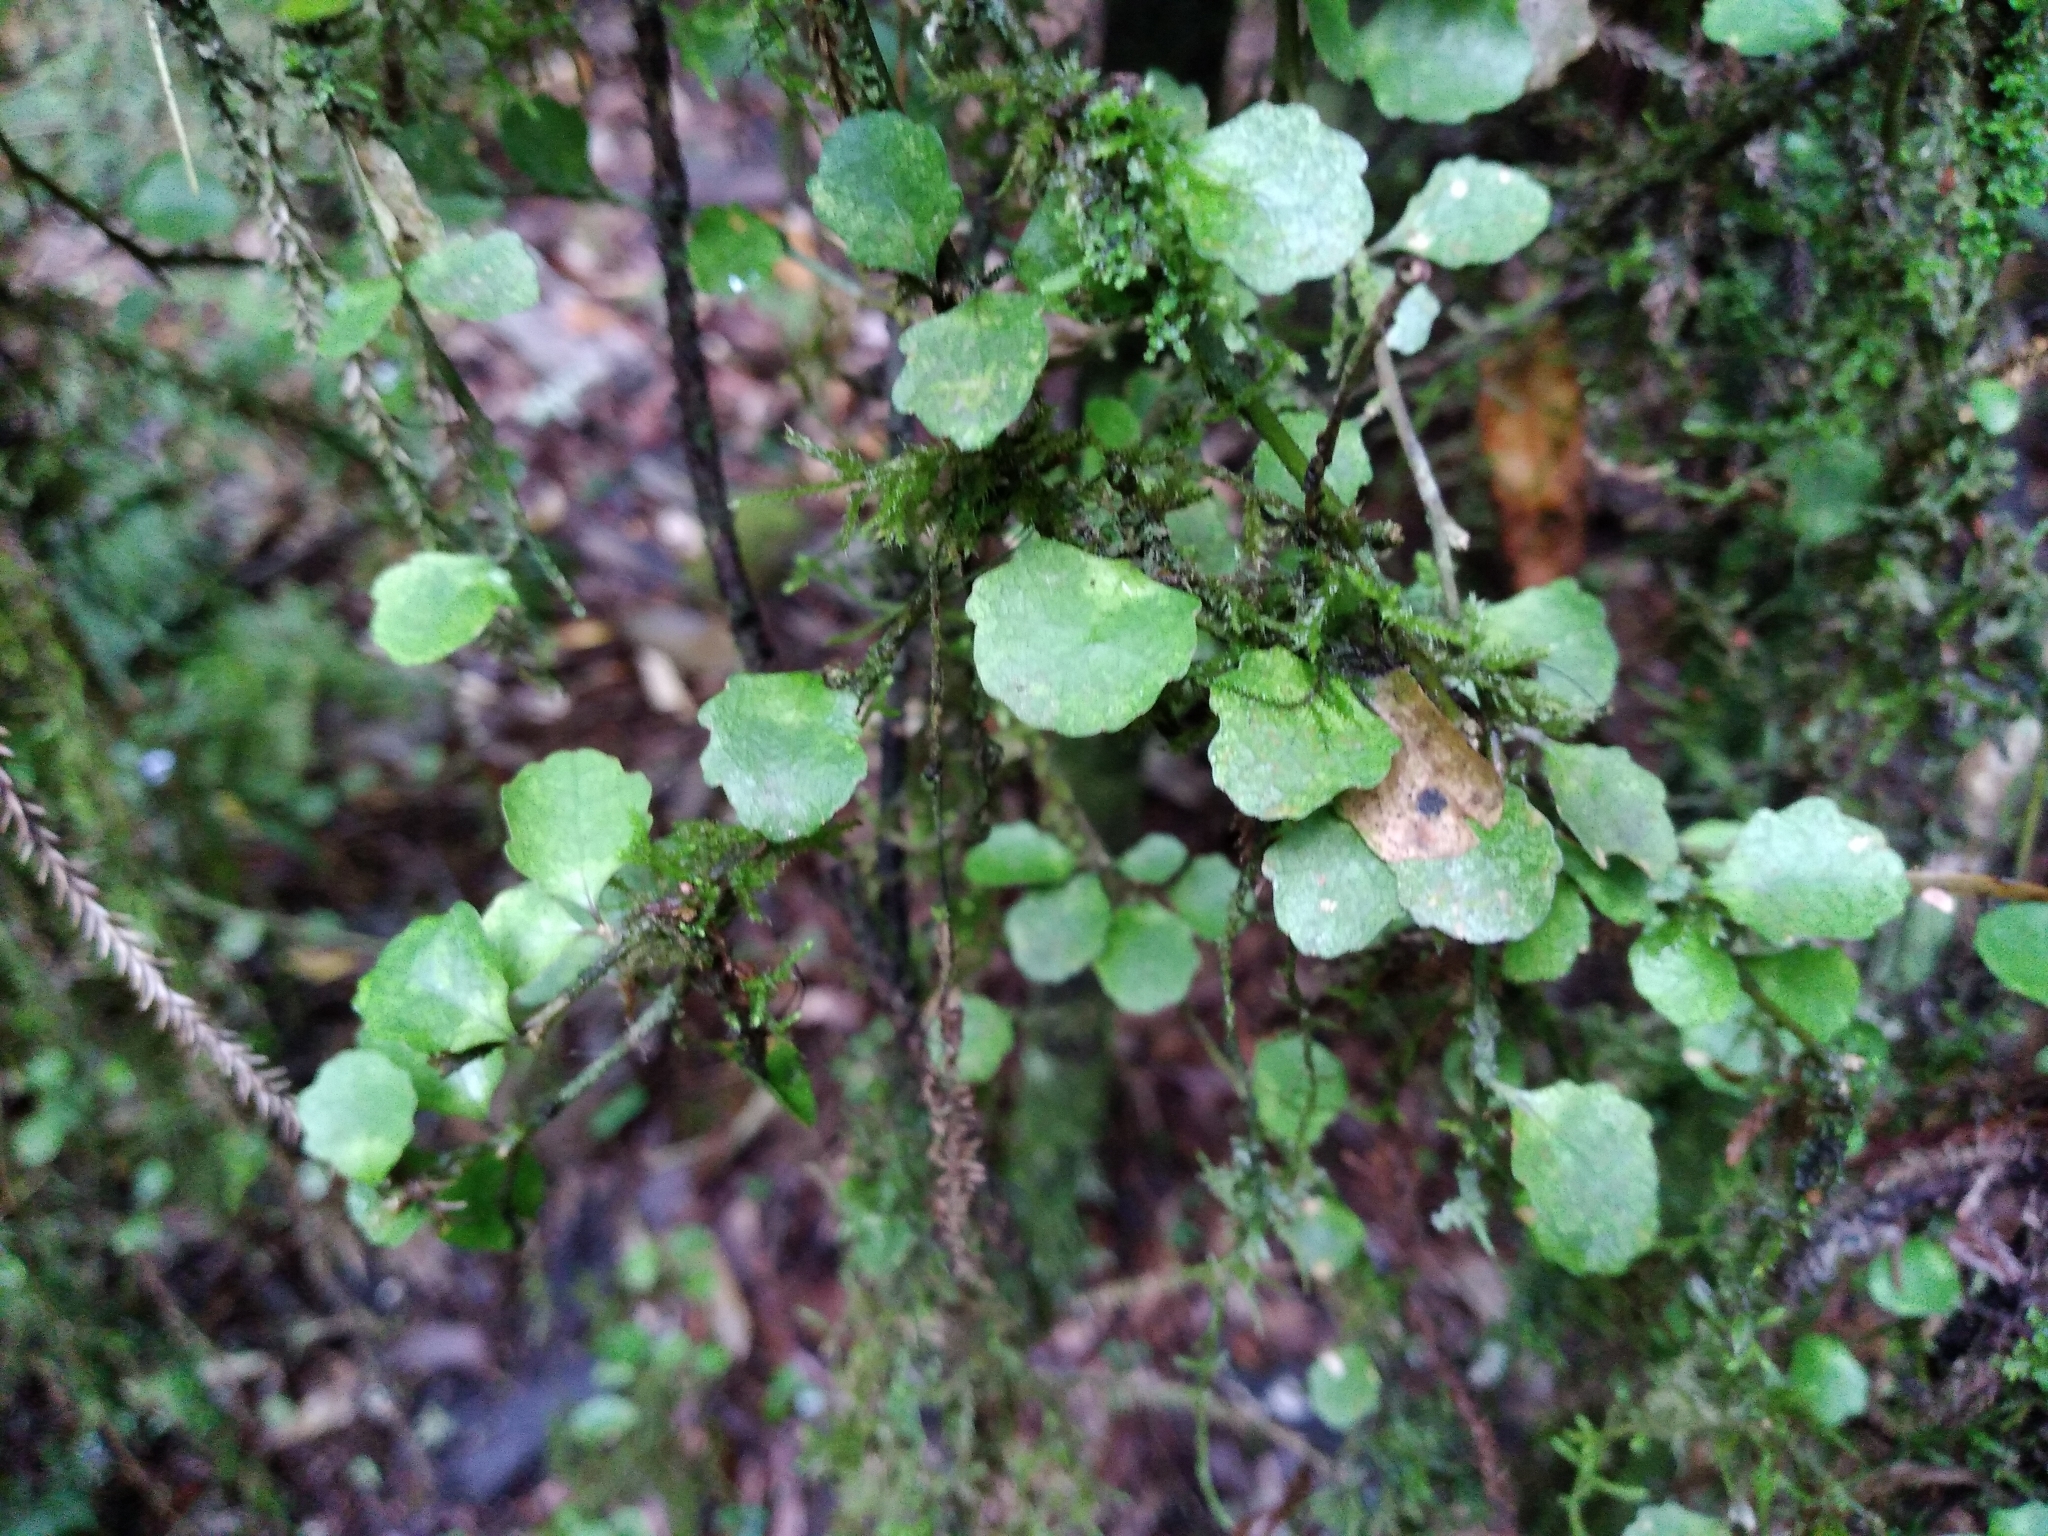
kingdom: Plantae
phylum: Tracheophyta
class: Magnoliopsida
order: Malpighiales
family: Violaceae
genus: Melicytus
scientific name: Melicytus micranthus
